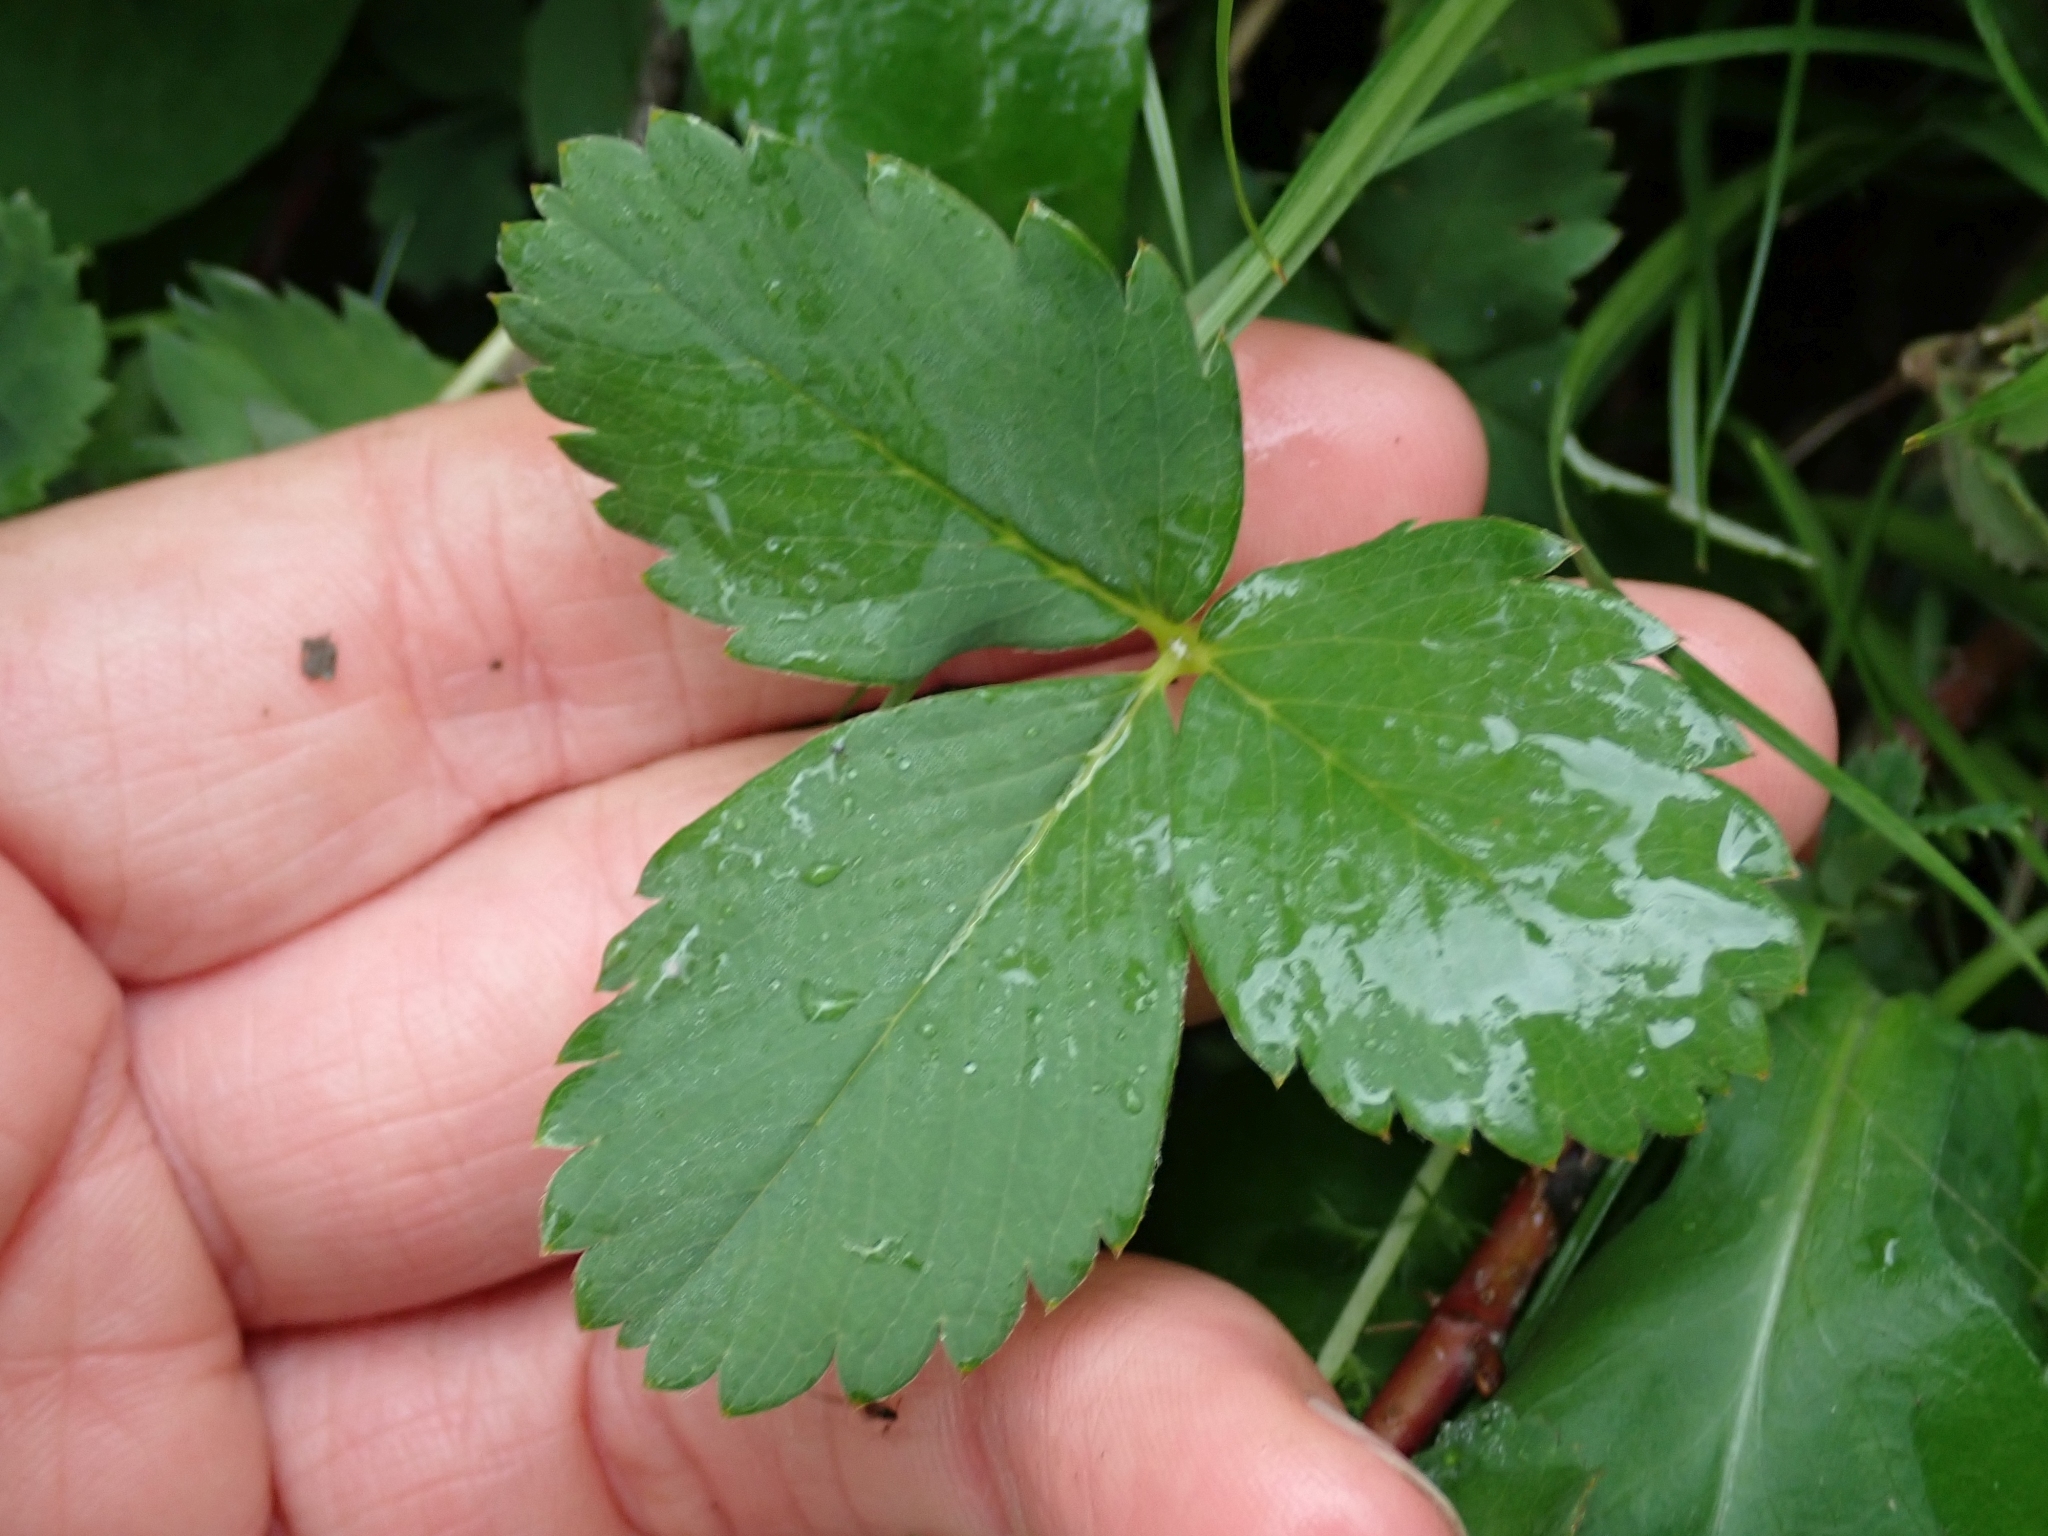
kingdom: Plantae
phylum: Tracheophyta
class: Magnoliopsida
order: Rosales
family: Rosaceae
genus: Fragaria
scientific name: Fragaria virginiana
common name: Thickleaved wild strawberry
